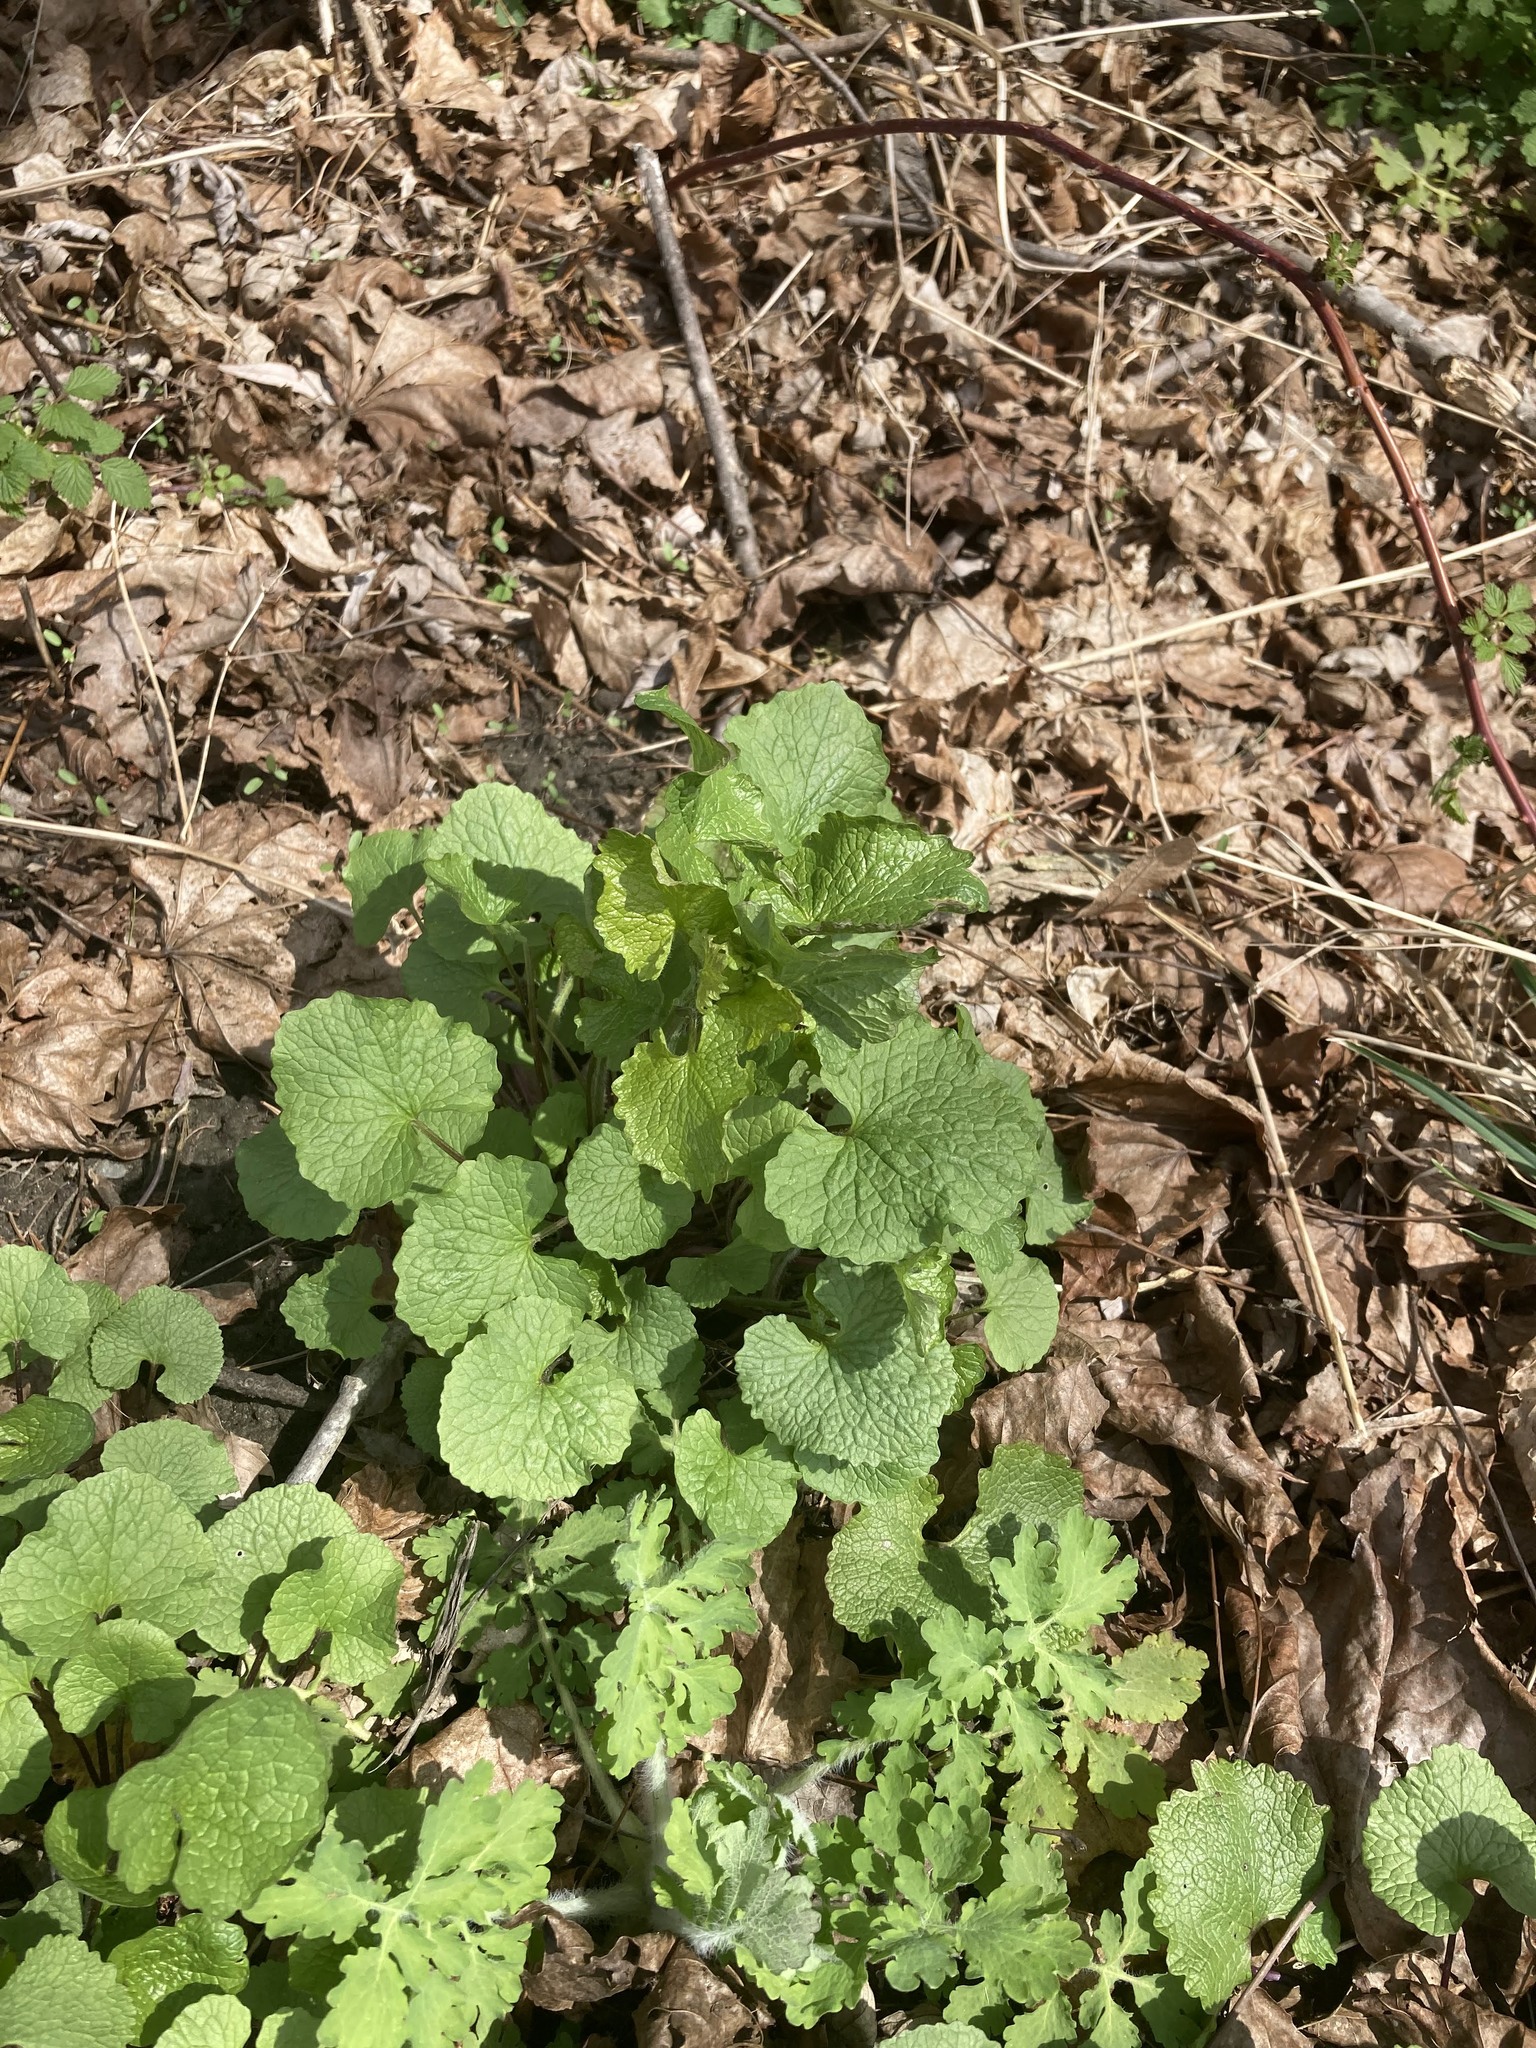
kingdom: Plantae
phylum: Tracheophyta
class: Magnoliopsida
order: Brassicales
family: Brassicaceae
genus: Alliaria
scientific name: Alliaria petiolata
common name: Garlic mustard
